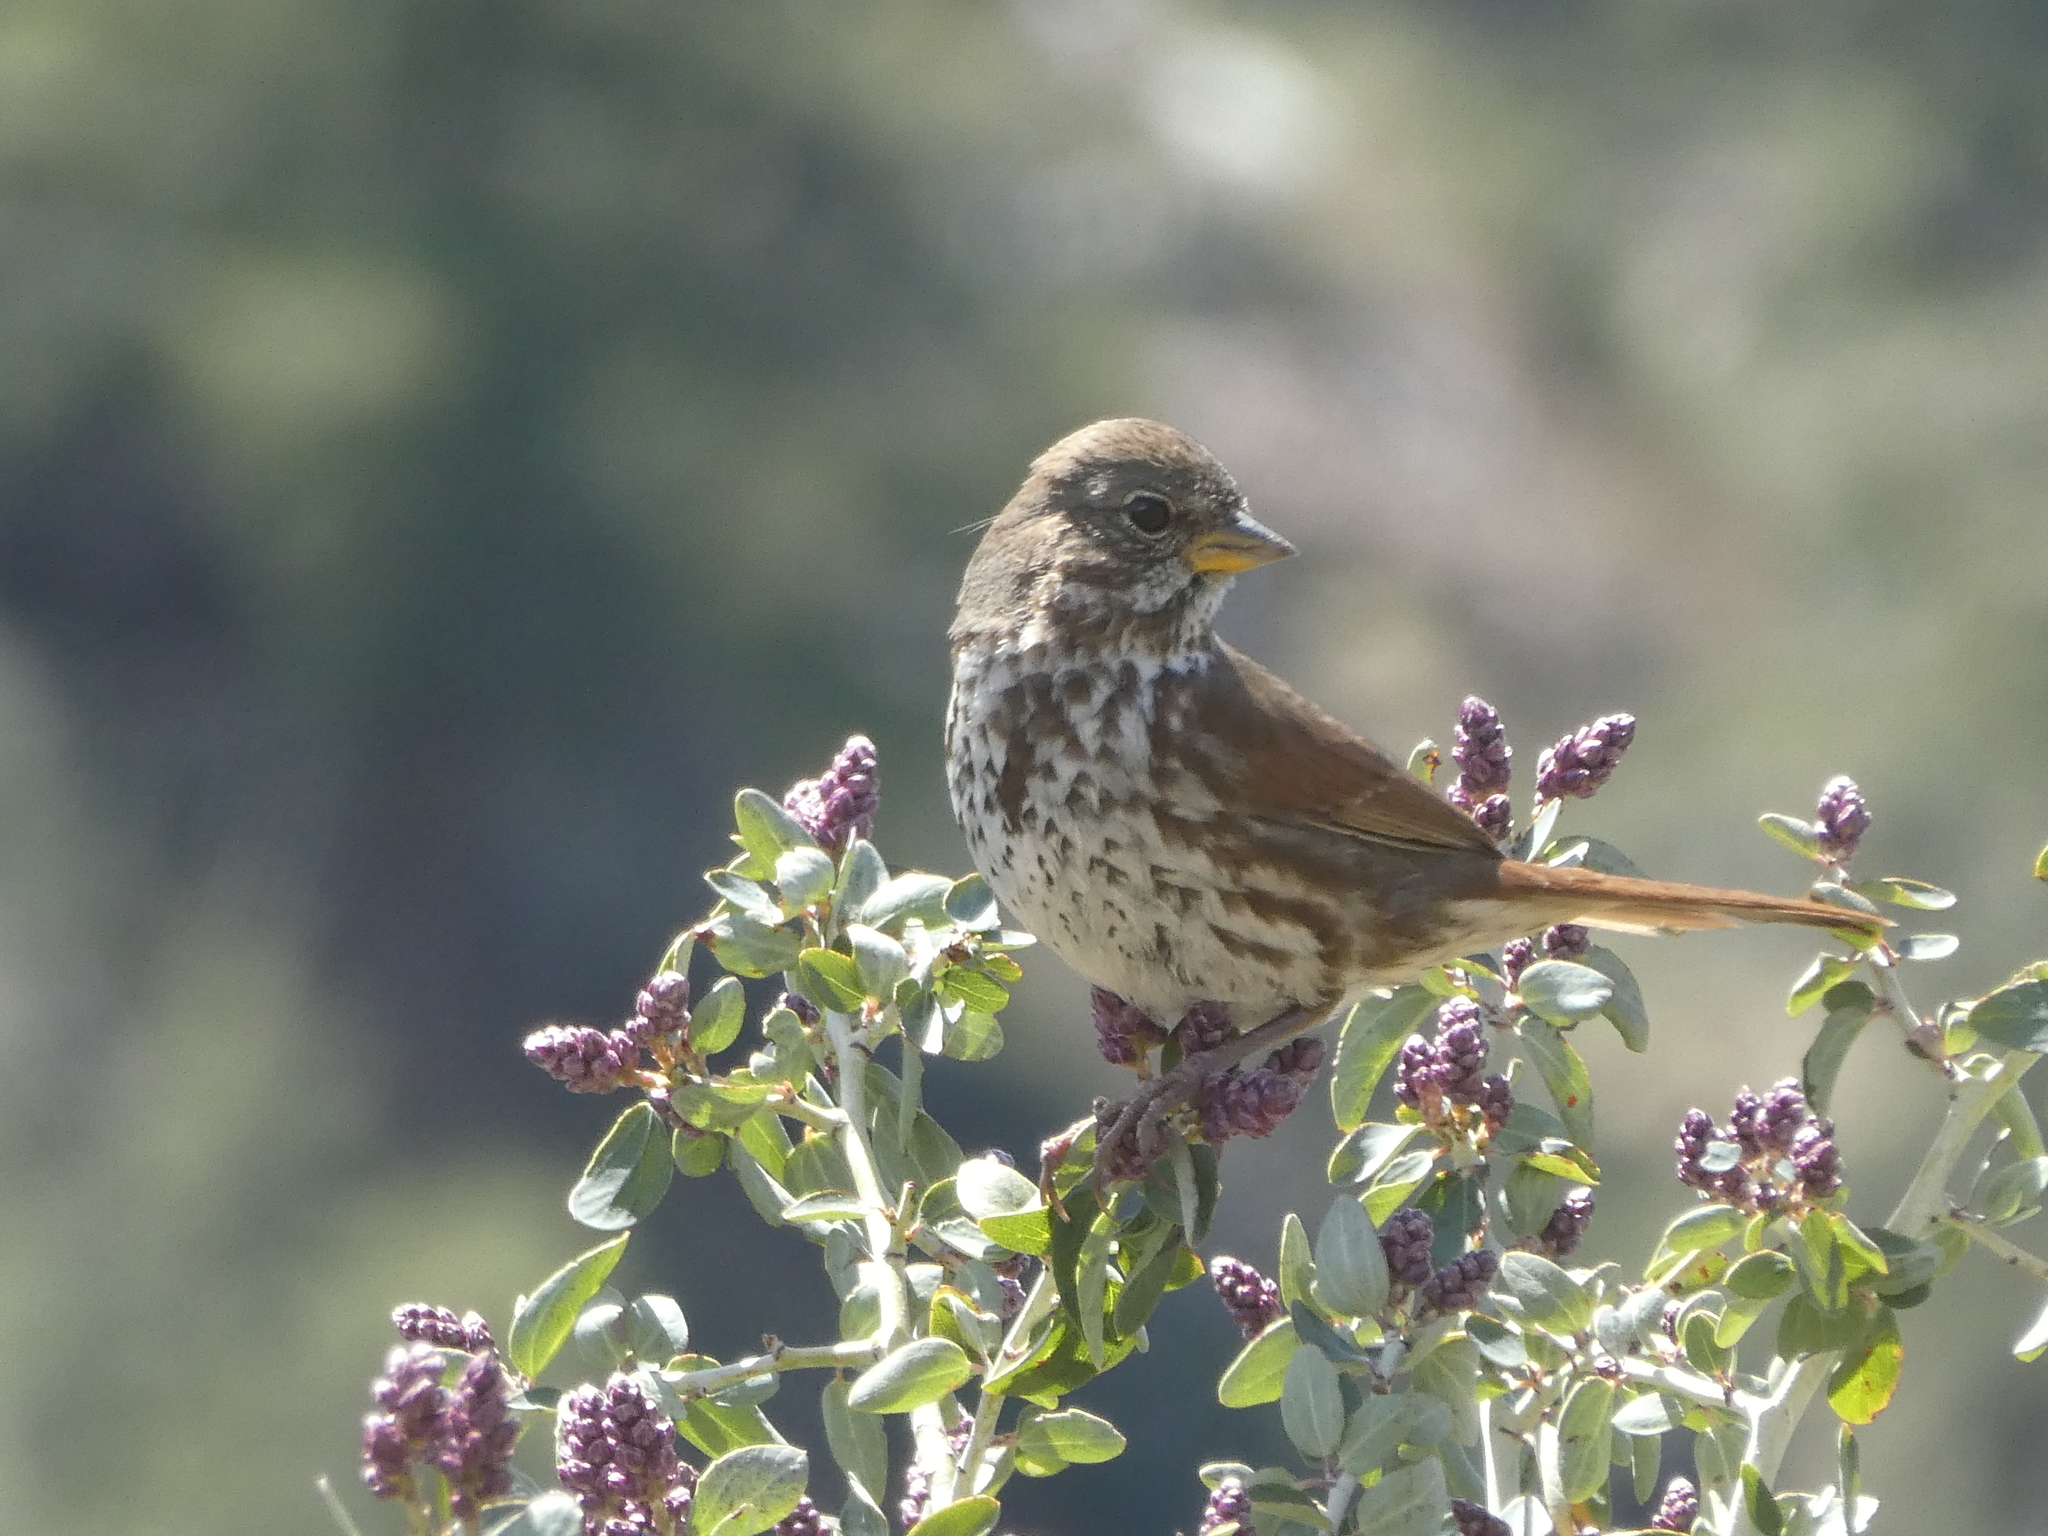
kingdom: Animalia
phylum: Chordata
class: Aves
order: Passeriformes
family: Passerellidae
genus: Passerella
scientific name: Passerella iliaca
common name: Fox sparrow
